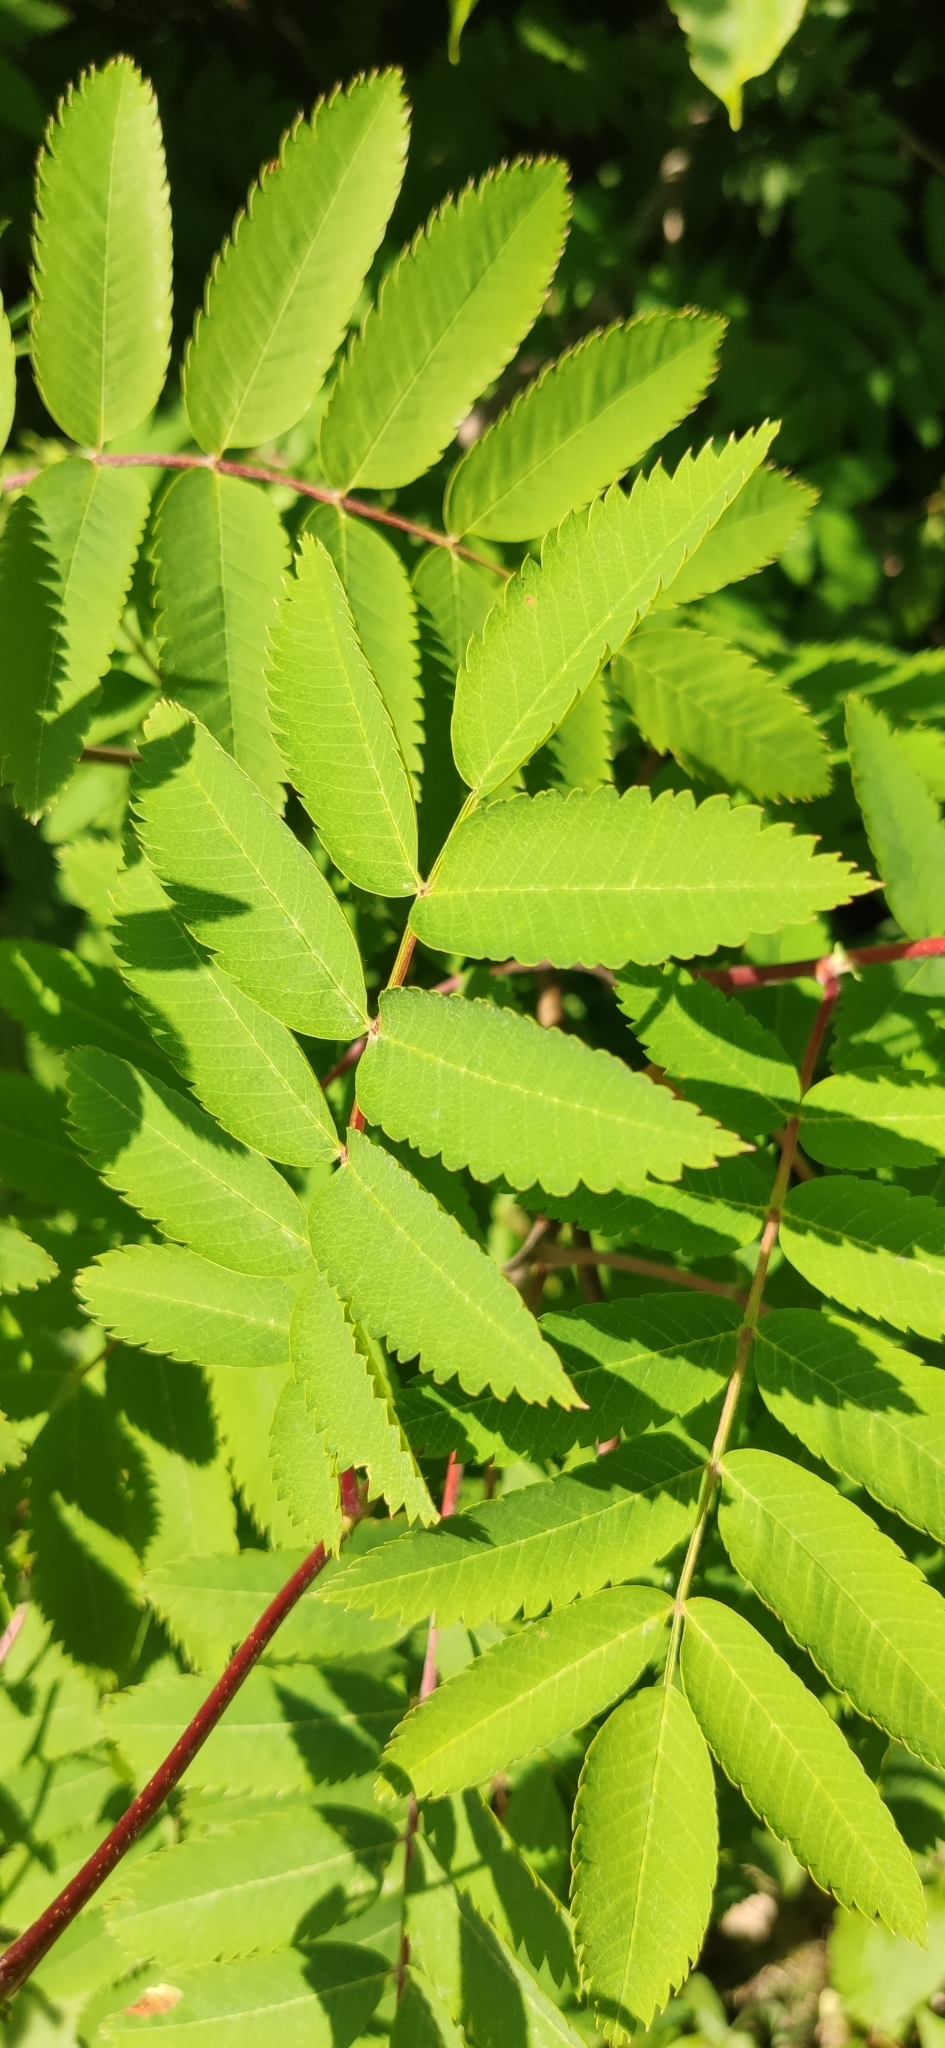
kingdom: Plantae
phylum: Tracheophyta
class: Magnoliopsida
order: Rosales
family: Rosaceae
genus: Sorbus
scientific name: Sorbus aucuparia
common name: Rowan
